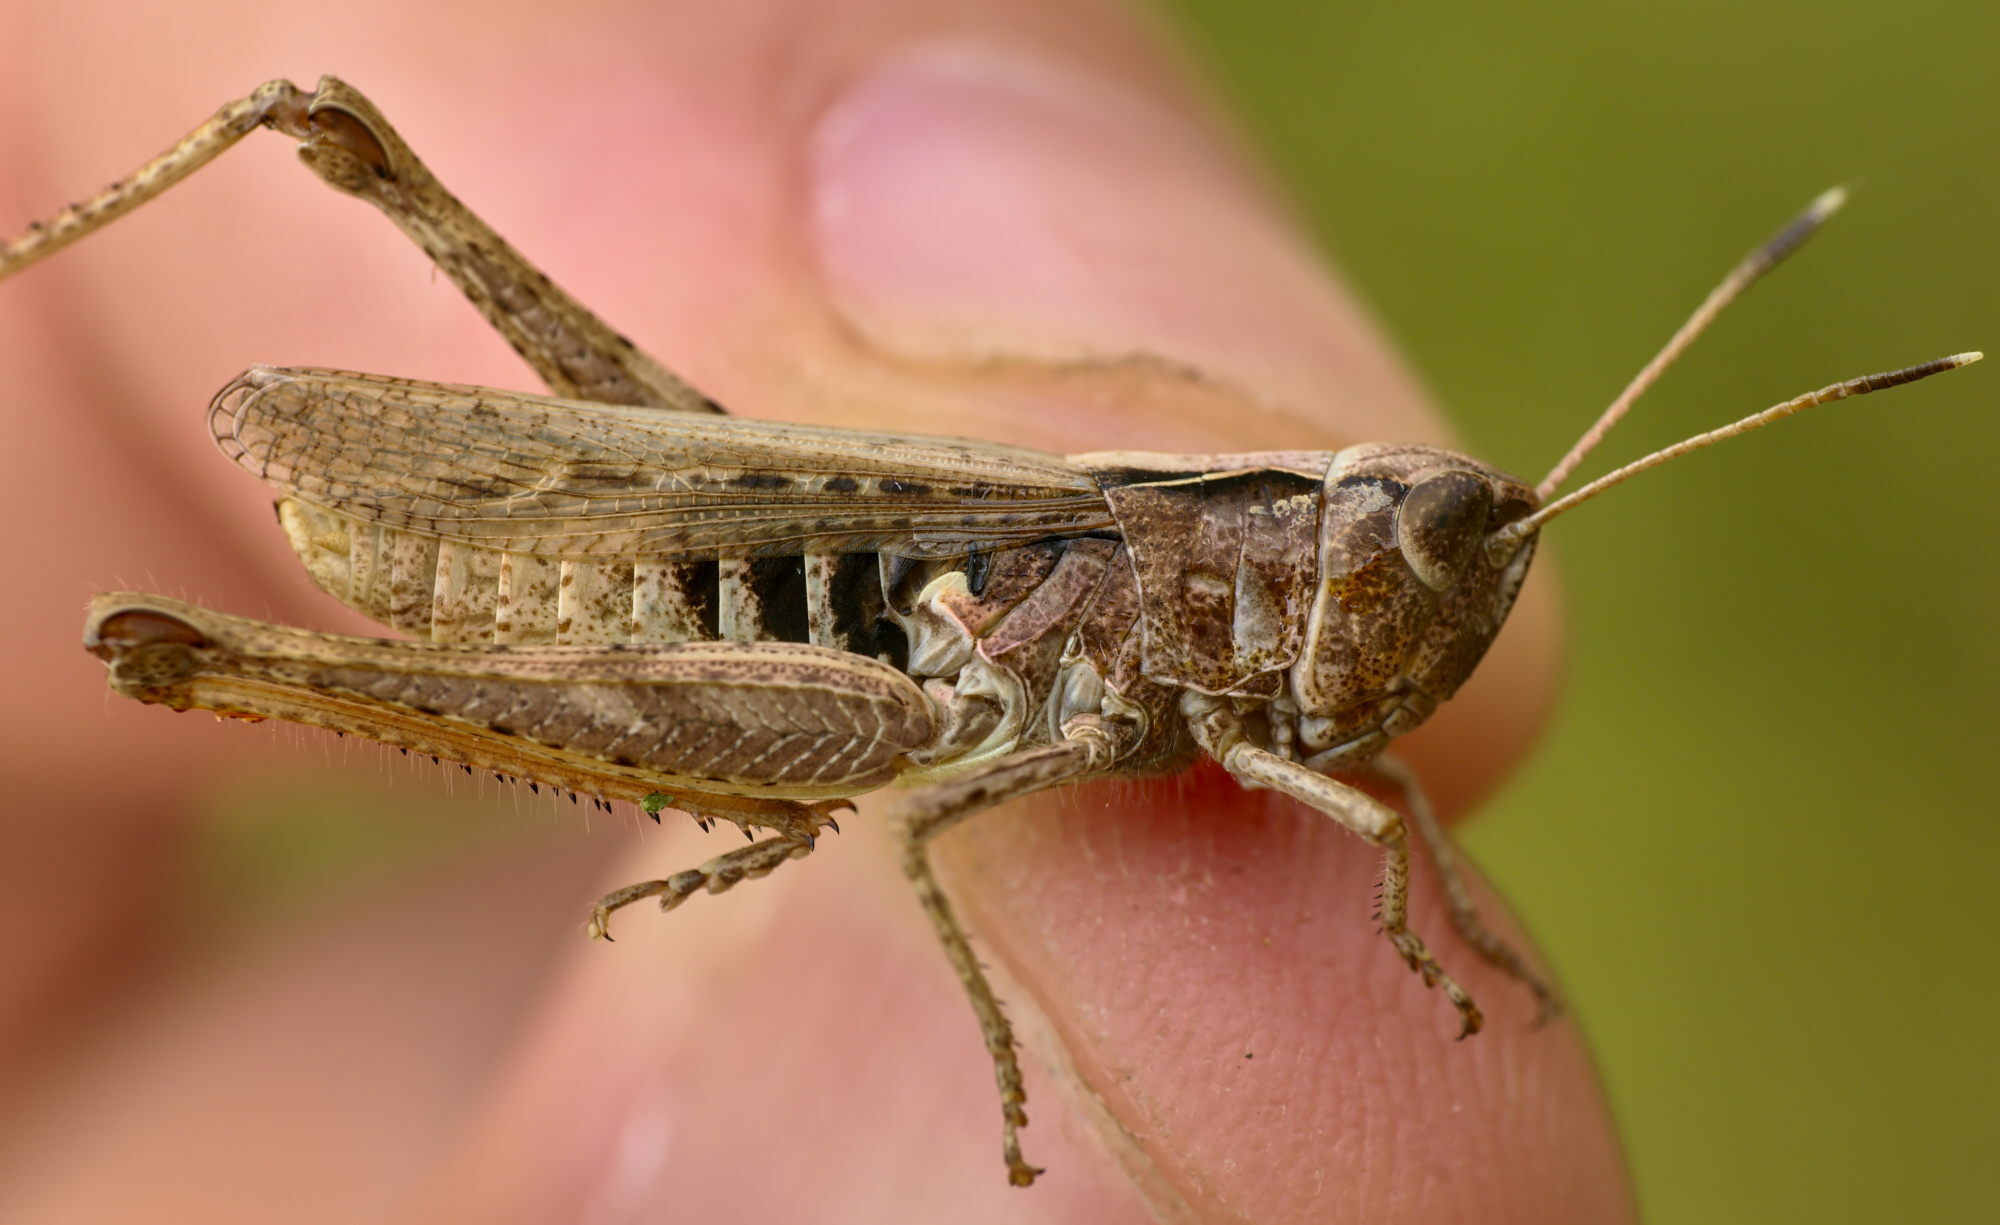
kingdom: Animalia
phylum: Arthropoda
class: Insecta
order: Orthoptera
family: Acrididae
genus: Gomphocerippus
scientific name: Gomphocerippus rufus
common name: Rufous grasshopper
